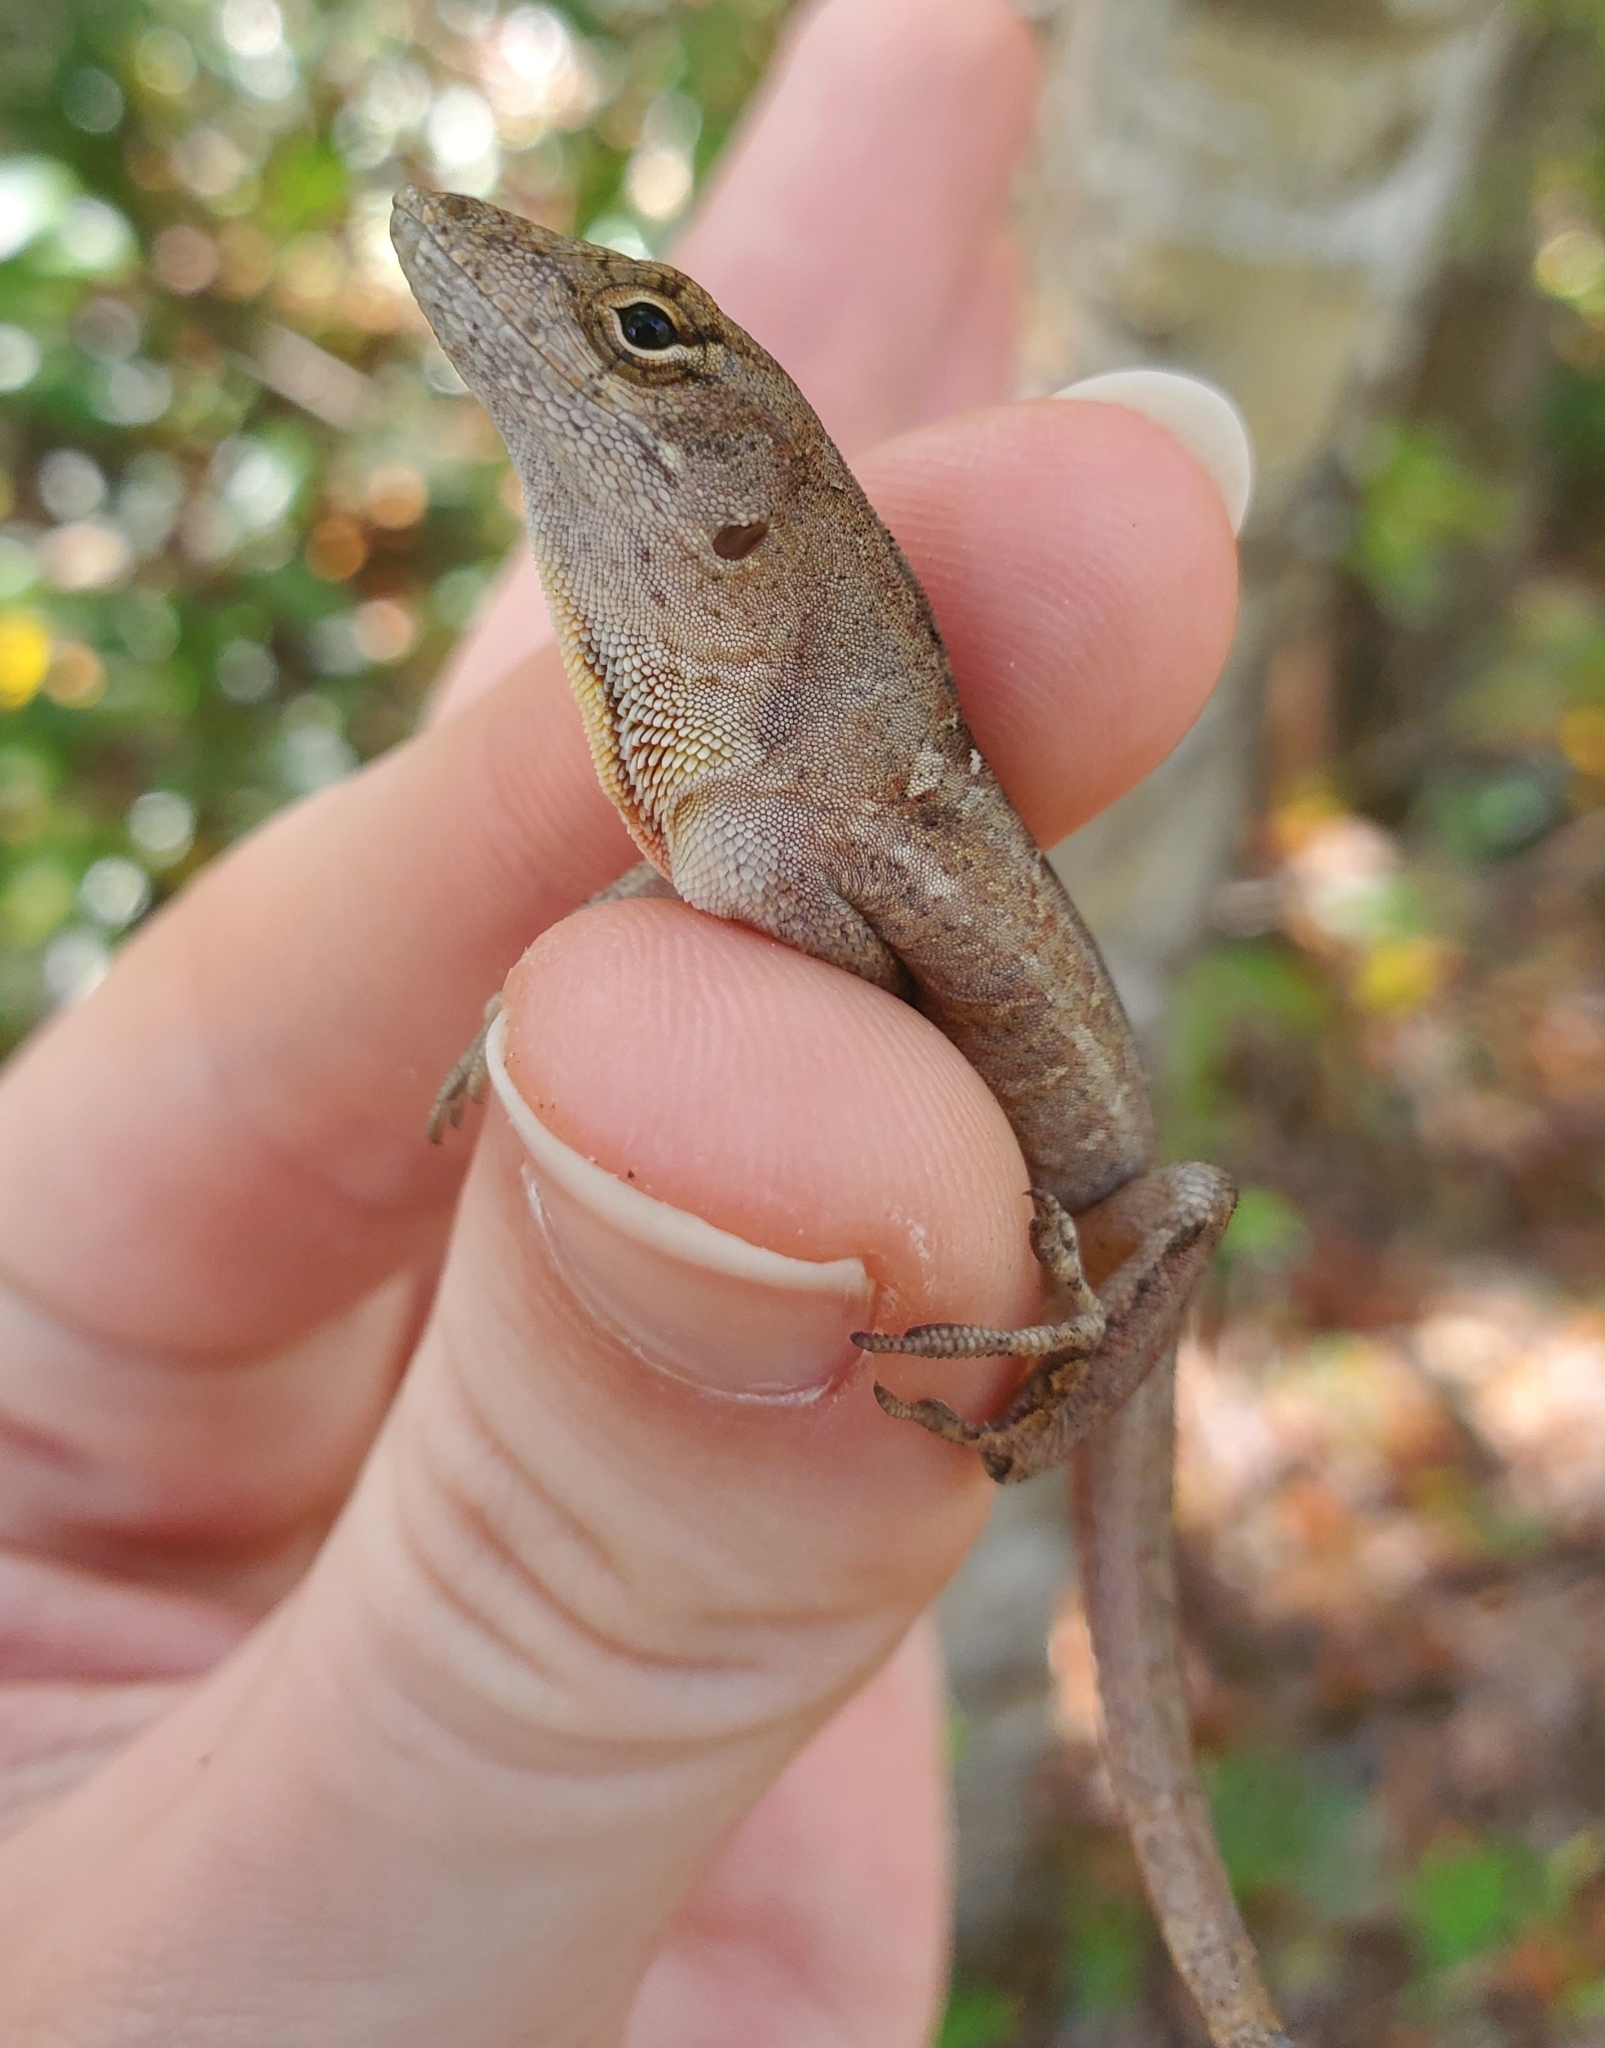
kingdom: Animalia
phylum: Chordata
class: Squamata
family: Dactyloidae
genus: Anolis
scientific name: Anolis sagrei
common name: Brown anole
